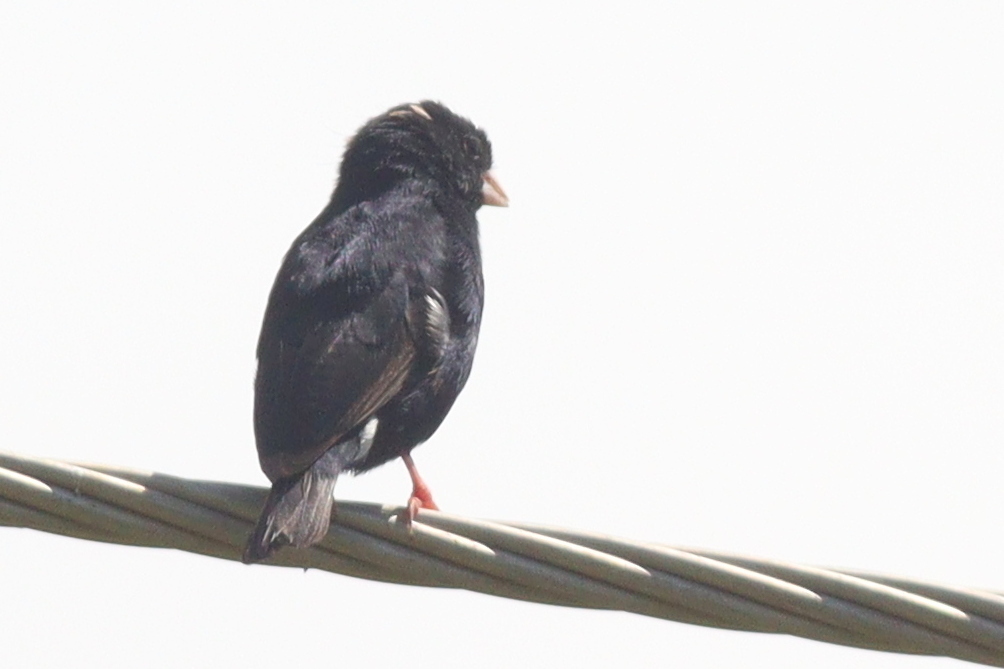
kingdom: Animalia
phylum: Chordata
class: Aves
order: Passeriformes
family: Viduidae
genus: Vidua
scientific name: Vidua chalybeata
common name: Village indigobird
